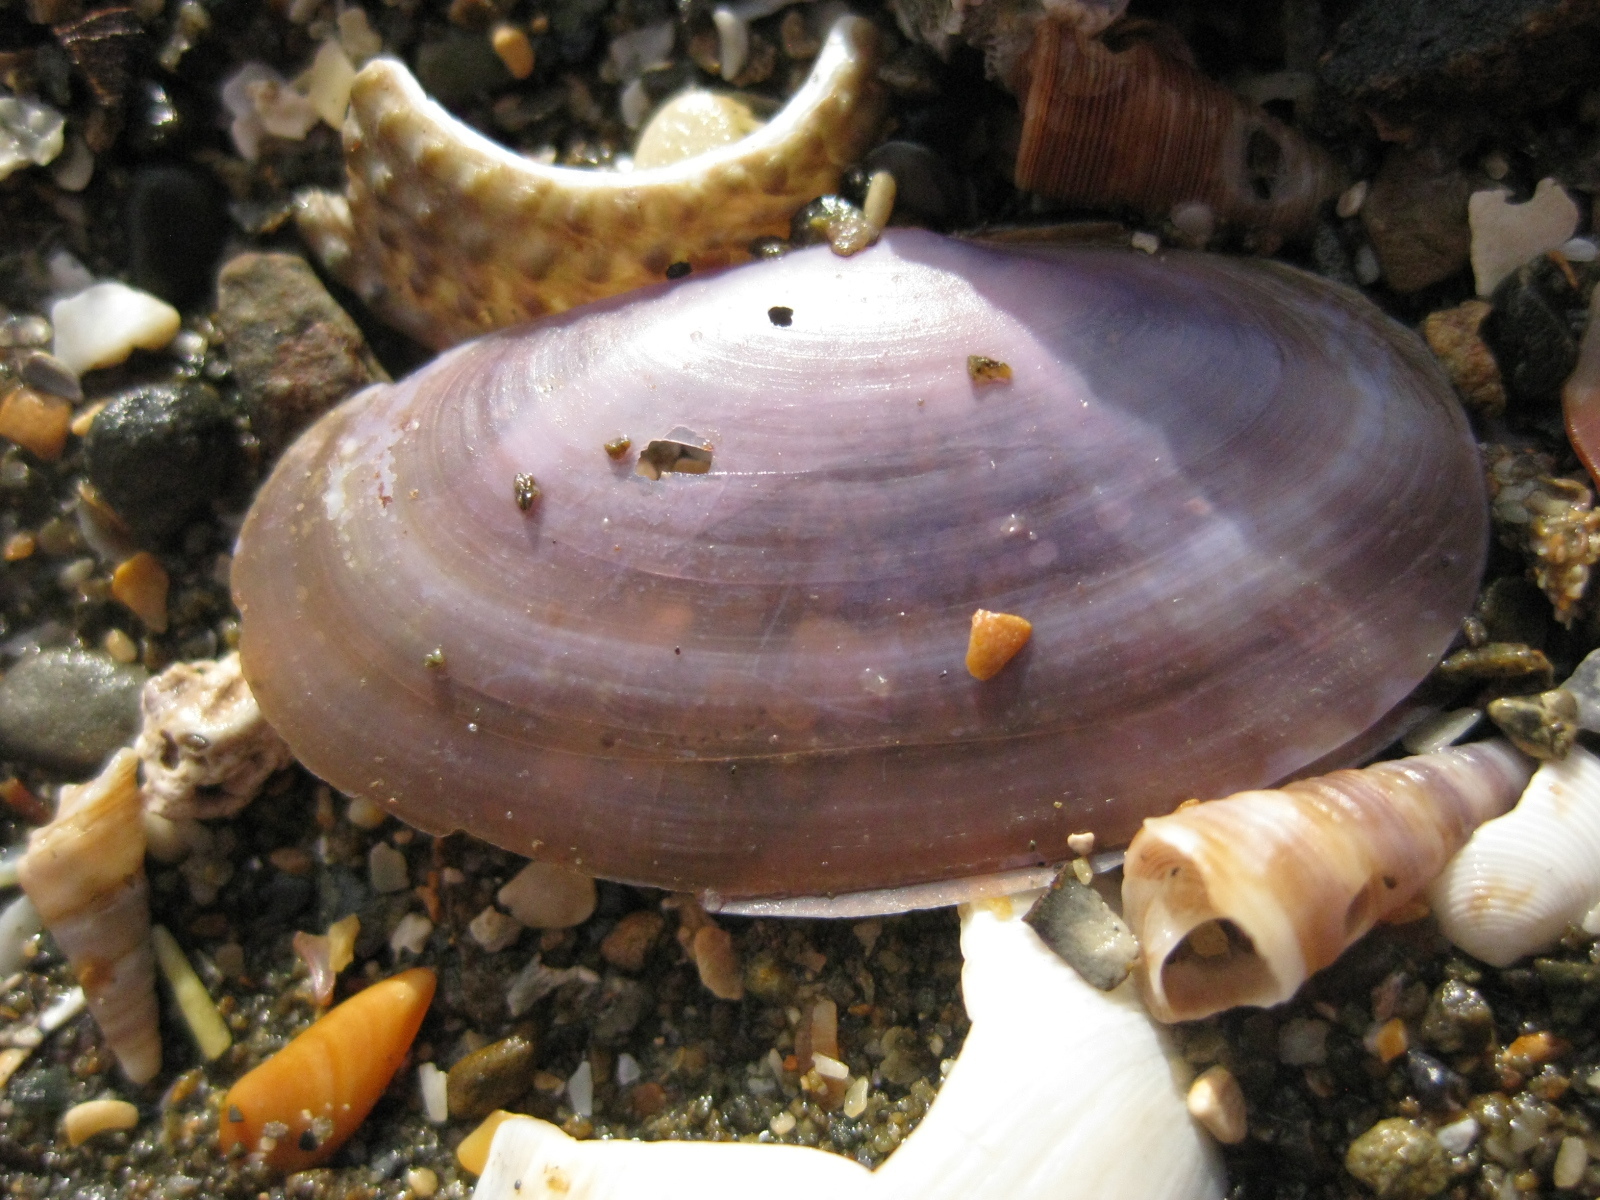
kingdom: Animalia
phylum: Mollusca
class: Bivalvia
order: Cardiida
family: Psammobiidae
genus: Hiatula
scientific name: Hiatula nitida
